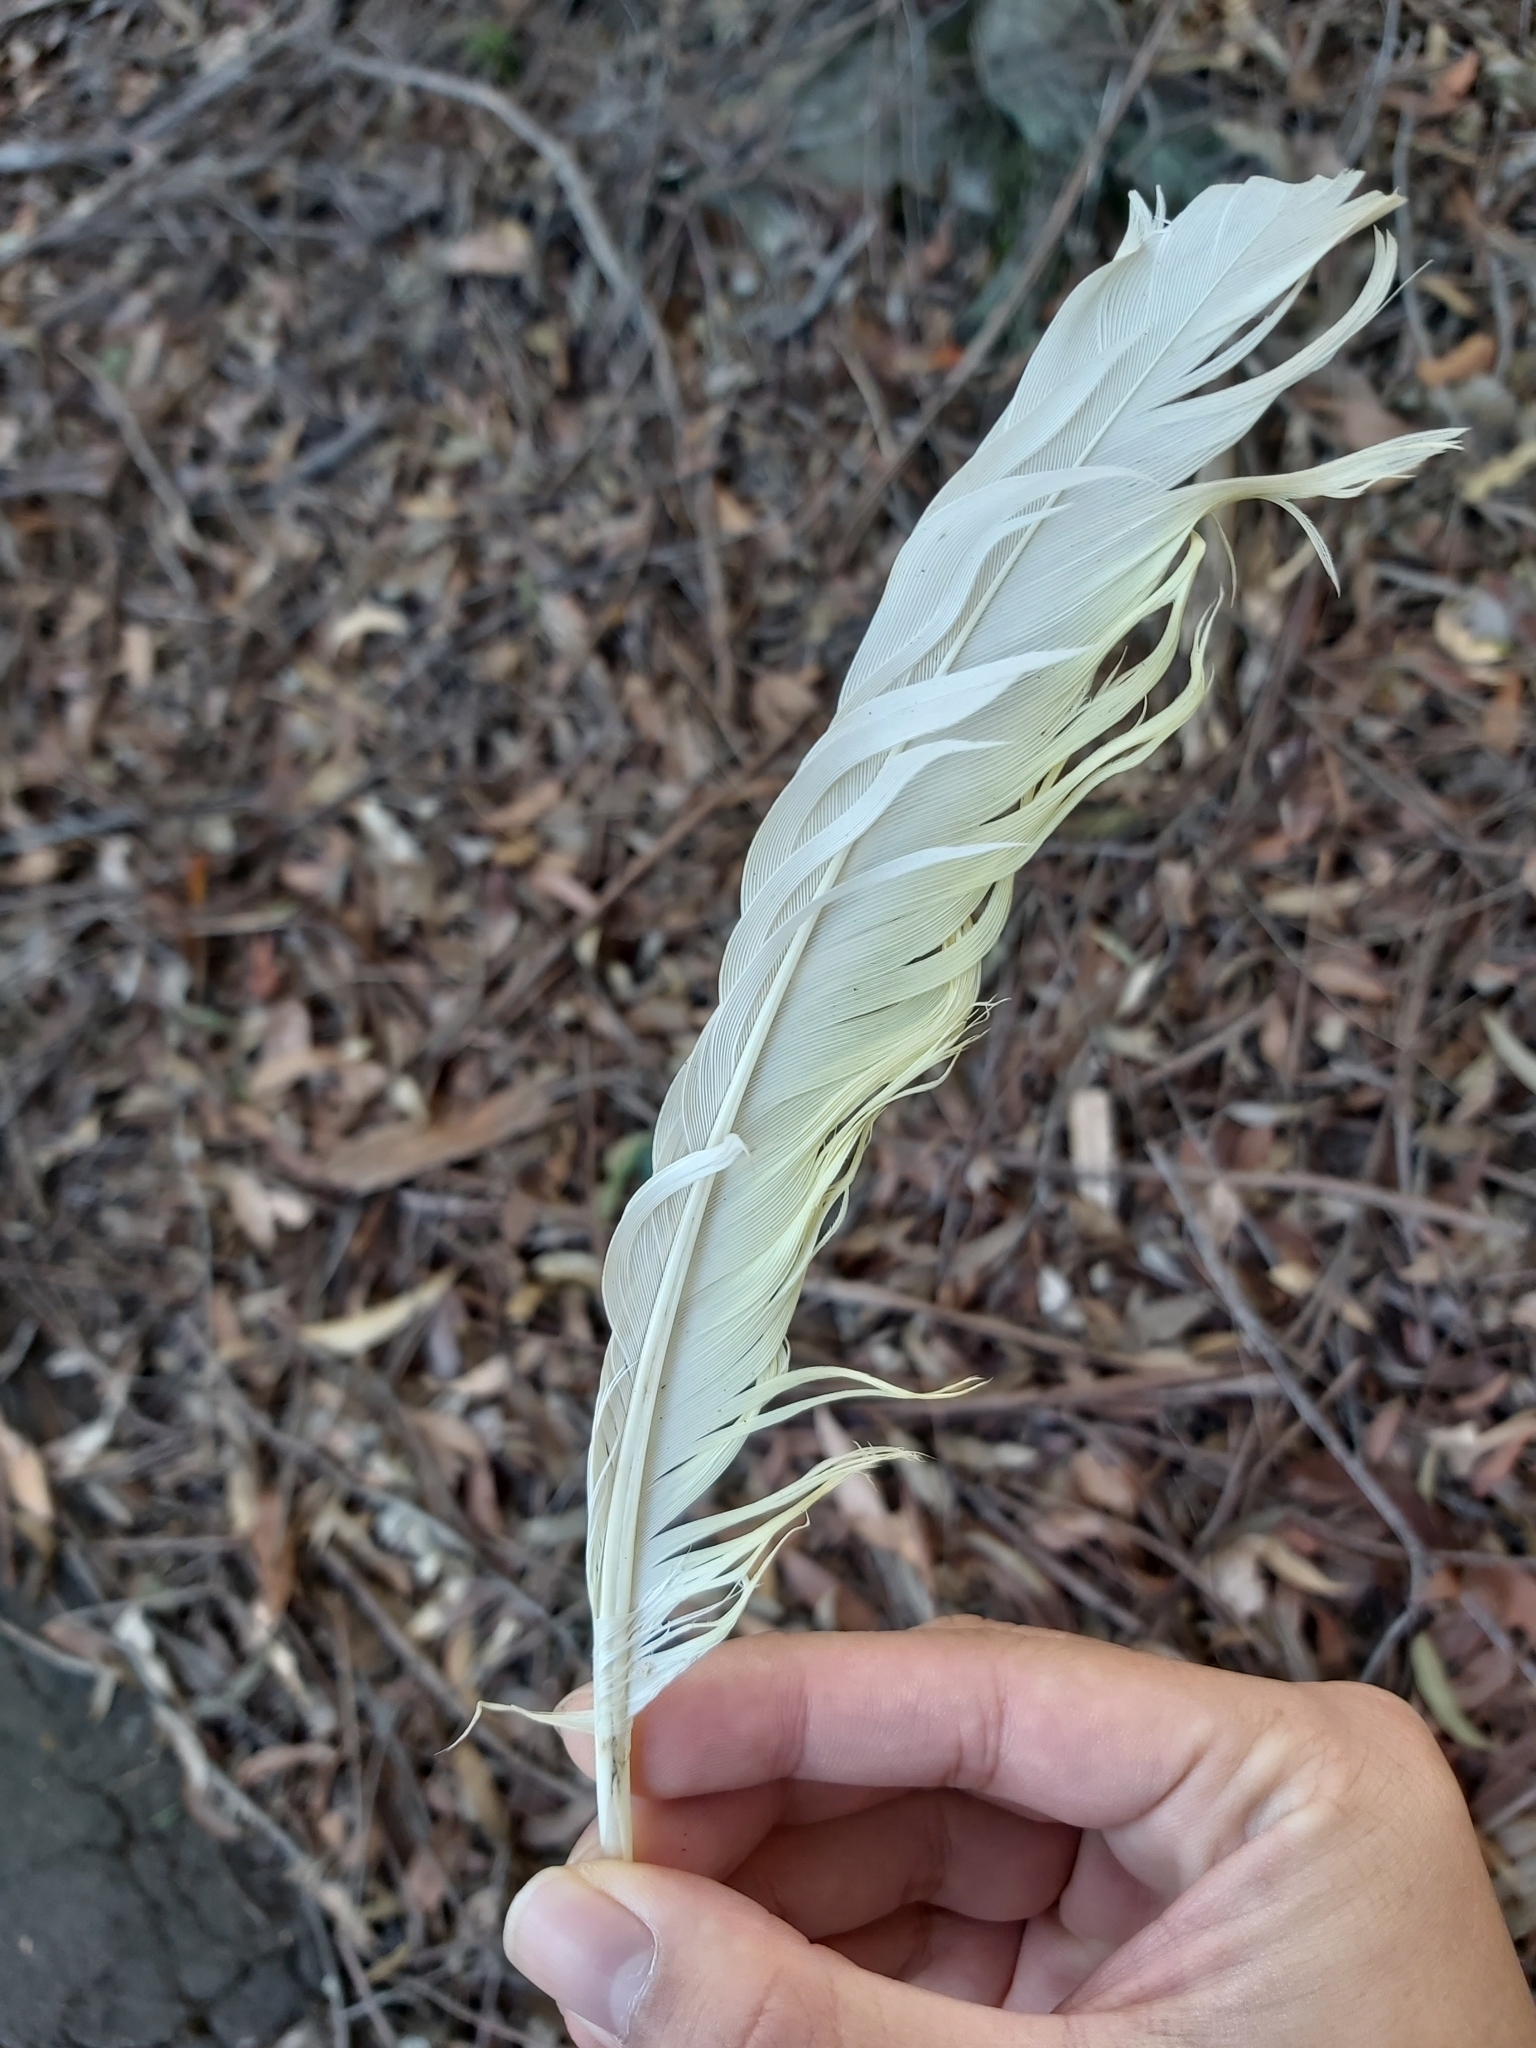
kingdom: Animalia
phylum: Chordata
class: Aves
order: Psittaciformes
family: Psittacidae
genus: Cacatua
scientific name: Cacatua galerita
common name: Sulphur-crested cockatoo
